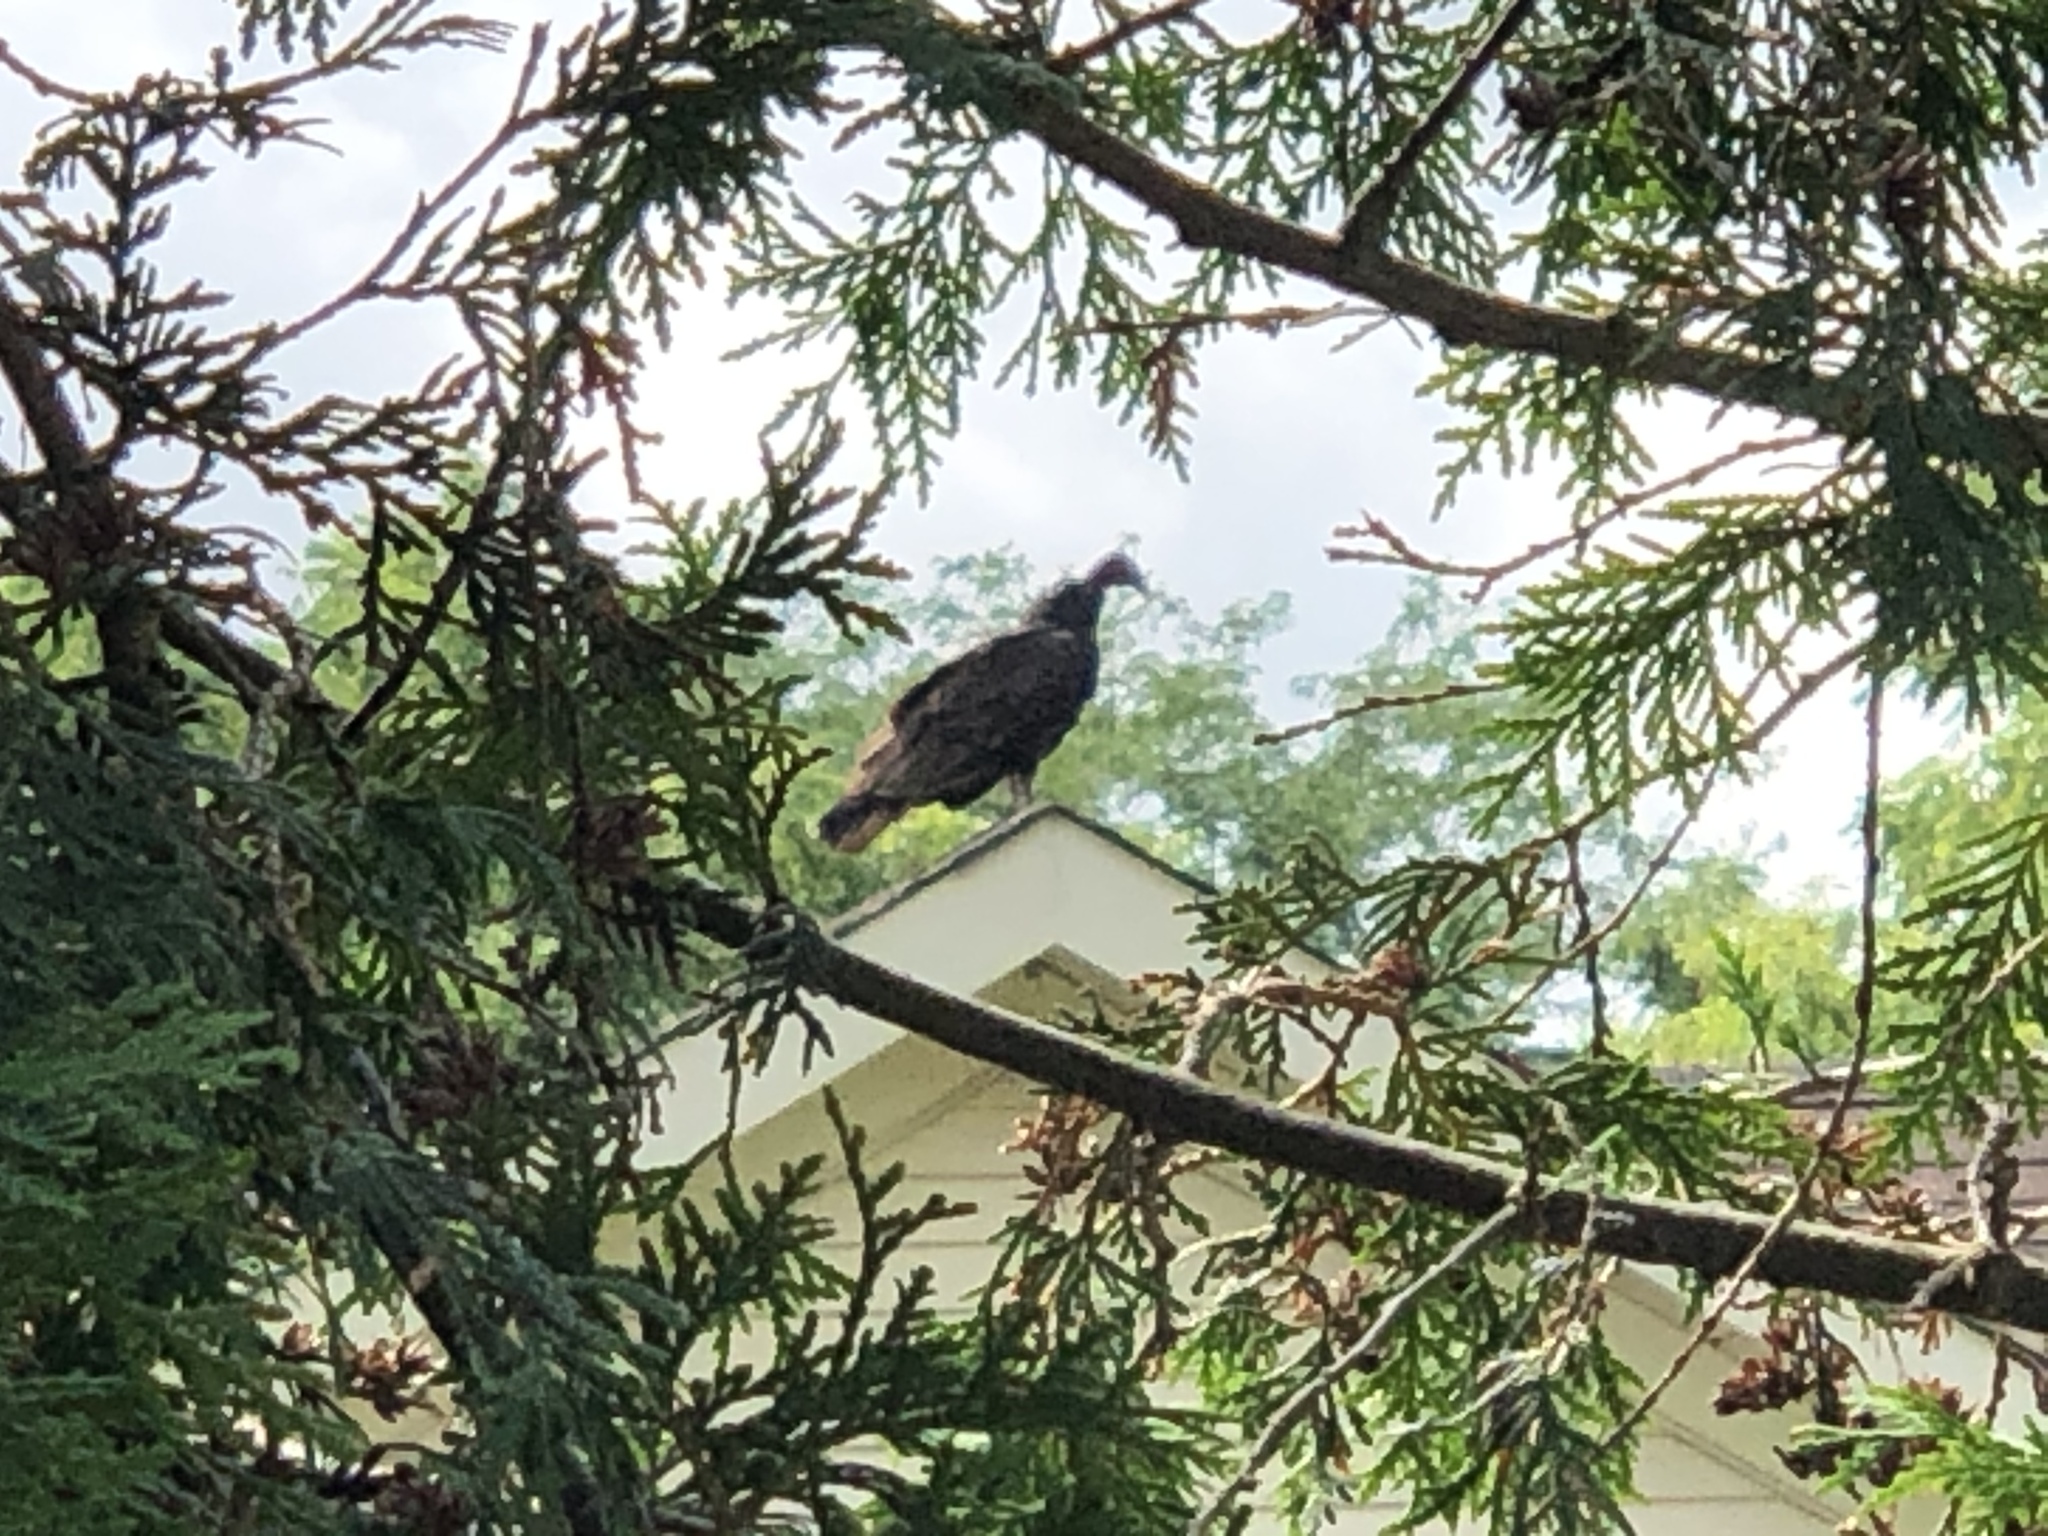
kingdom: Animalia
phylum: Chordata
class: Aves
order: Accipitriformes
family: Cathartidae
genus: Cathartes
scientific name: Cathartes aura
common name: Turkey vulture
